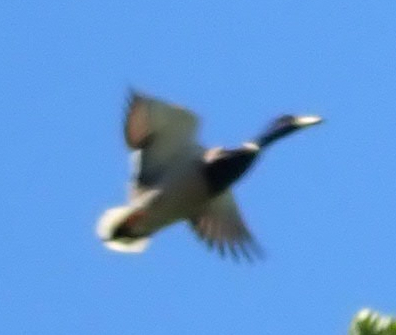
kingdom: Animalia
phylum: Chordata
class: Aves
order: Anseriformes
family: Anatidae
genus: Anas
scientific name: Anas platyrhynchos
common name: Mallard
